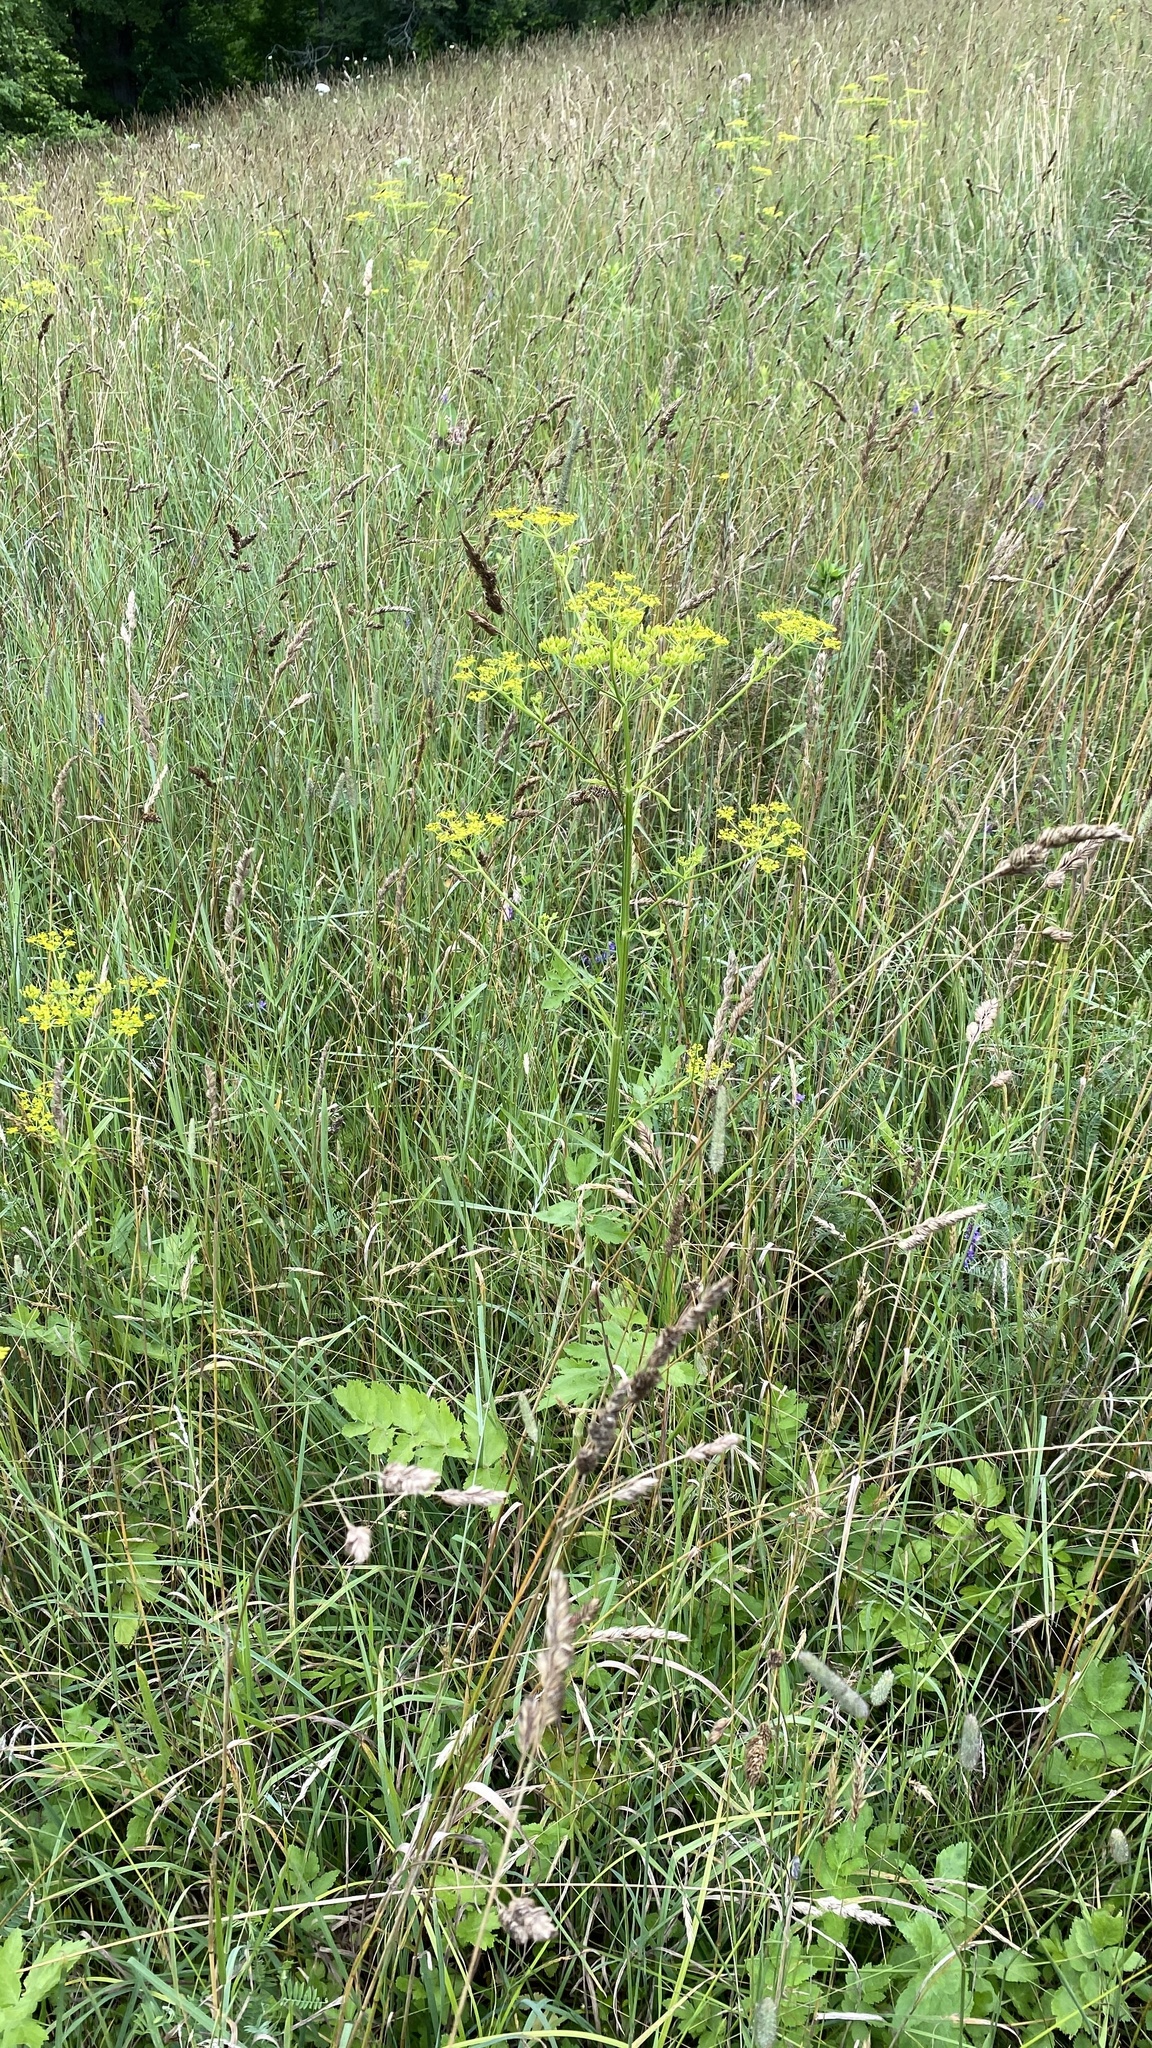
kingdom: Plantae
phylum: Tracheophyta
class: Magnoliopsida
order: Apiales
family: Apiaceae
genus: Pastinaca
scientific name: Pastinaca sativa
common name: Wild parsnip
